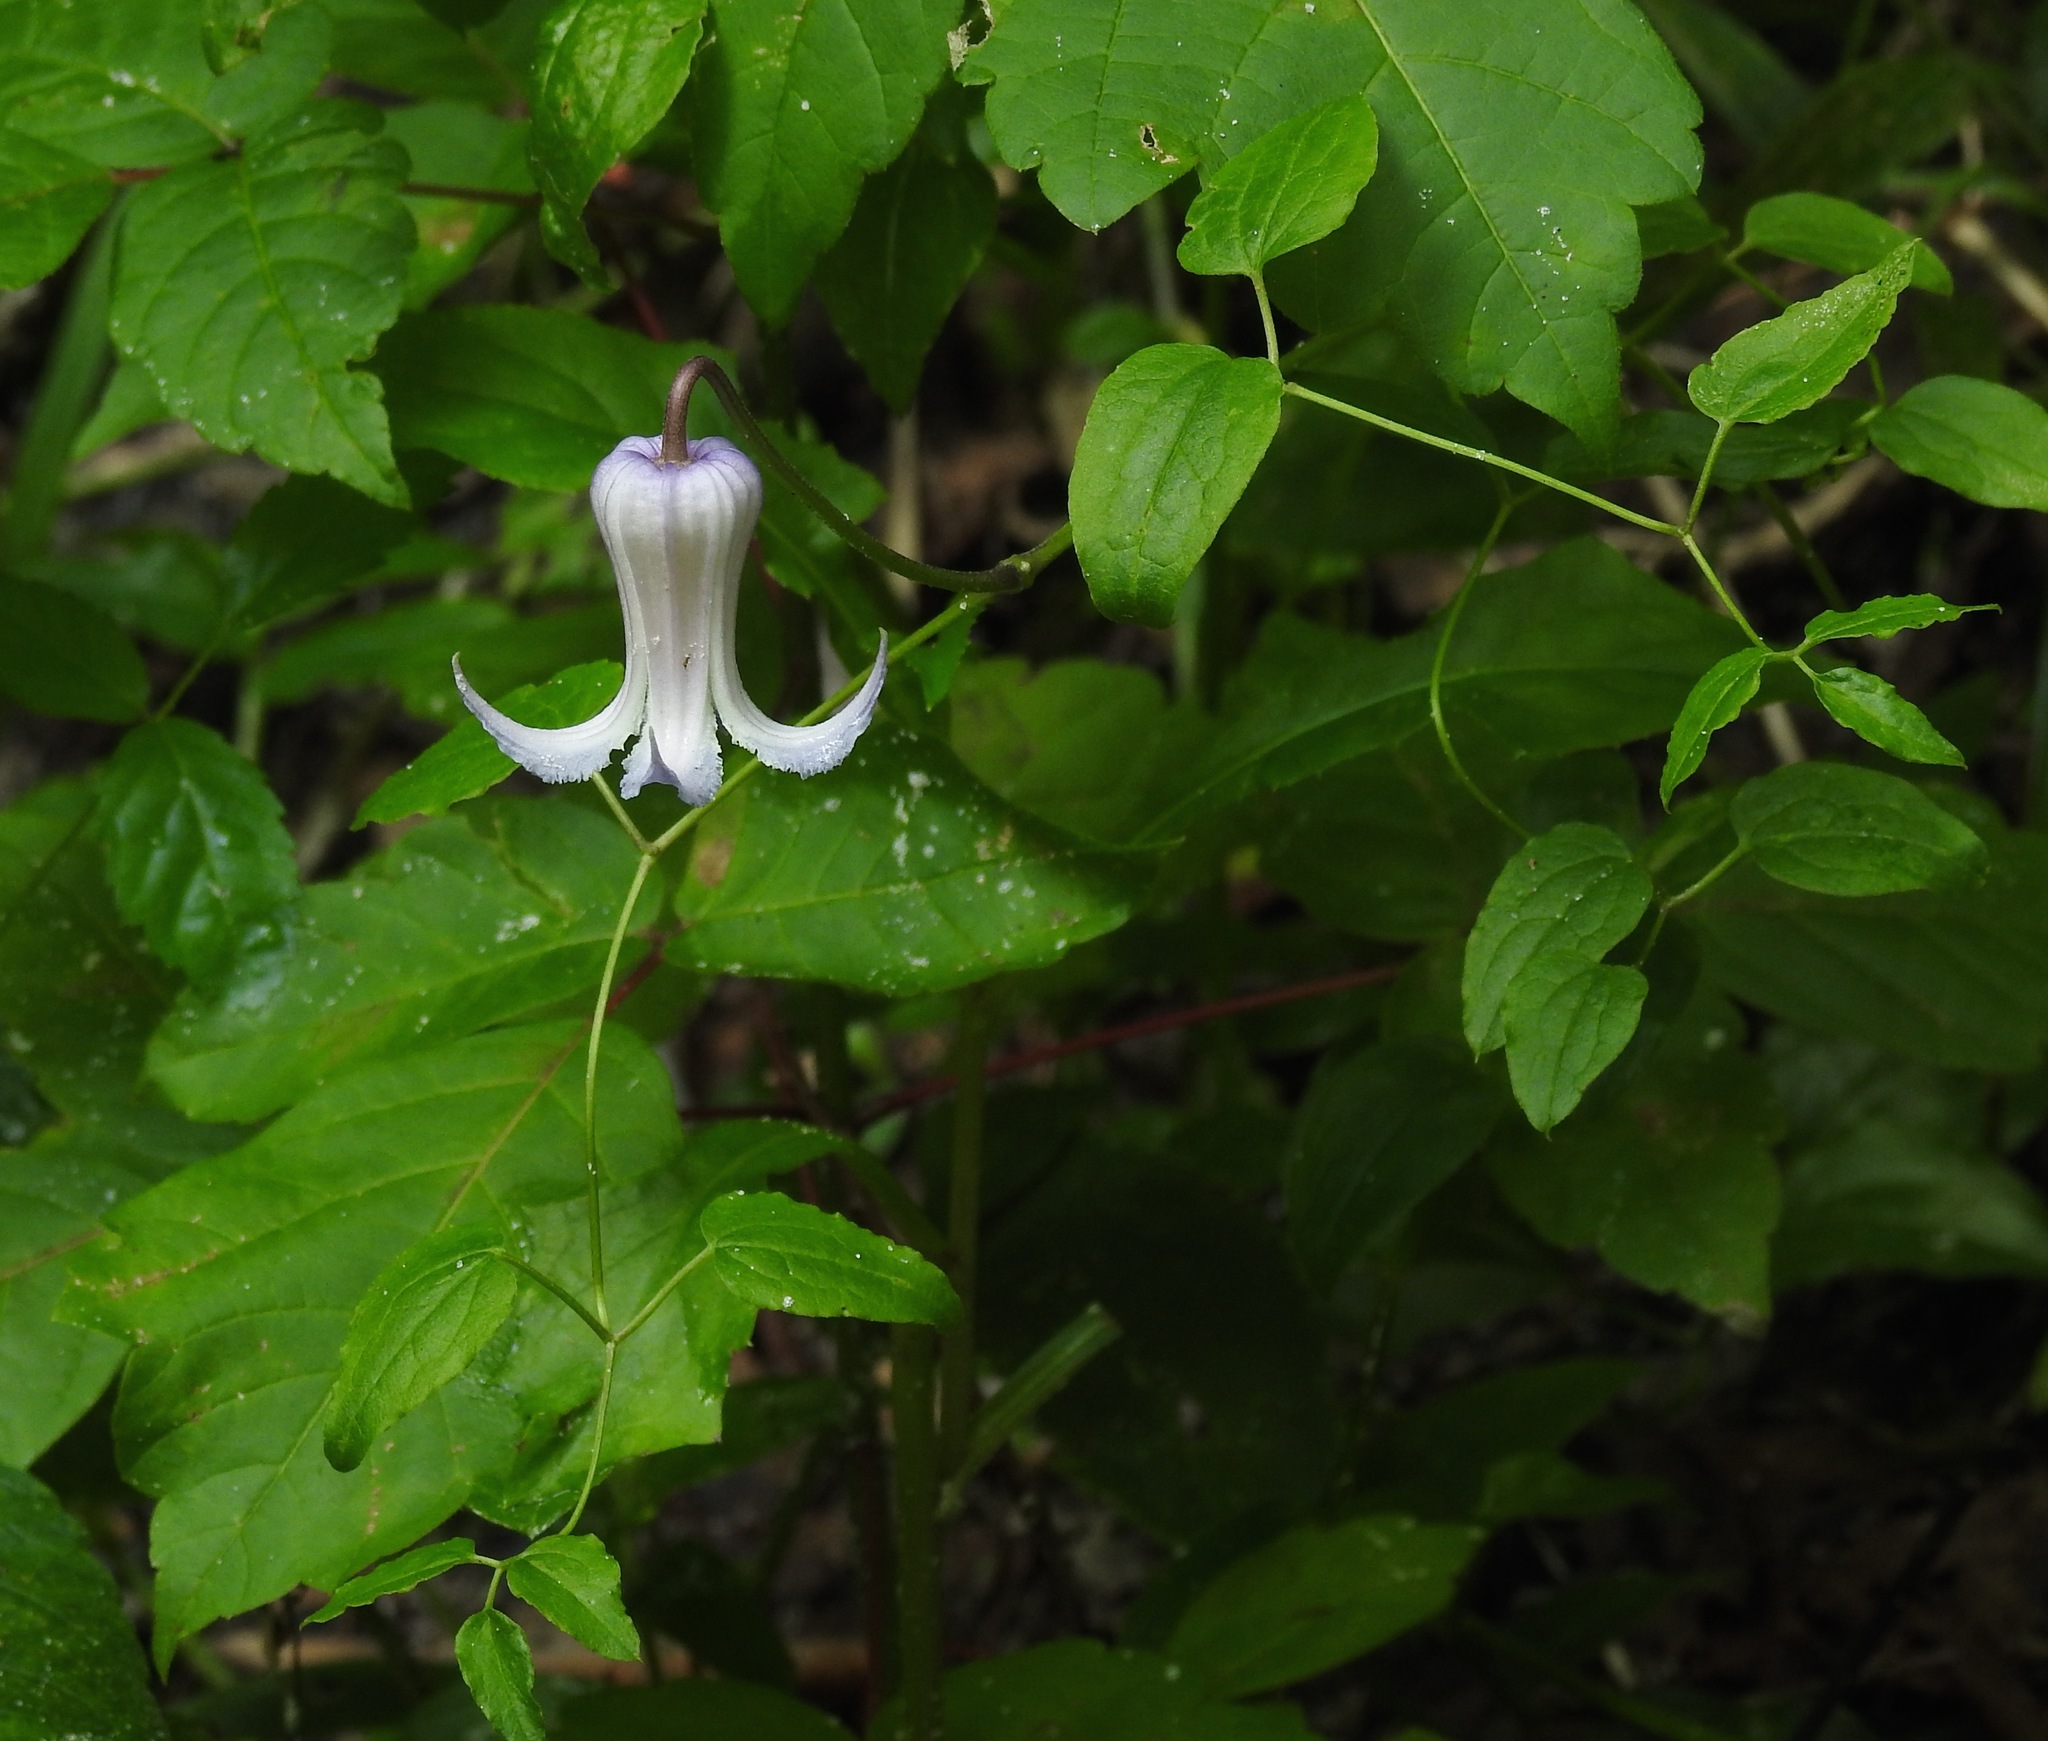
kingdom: Plantae
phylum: Tracheophyta
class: Magnoliopsida
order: Ranunculales
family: Ranunculaceae
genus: Clematis
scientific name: Clematis crispa
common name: Curly clematis
